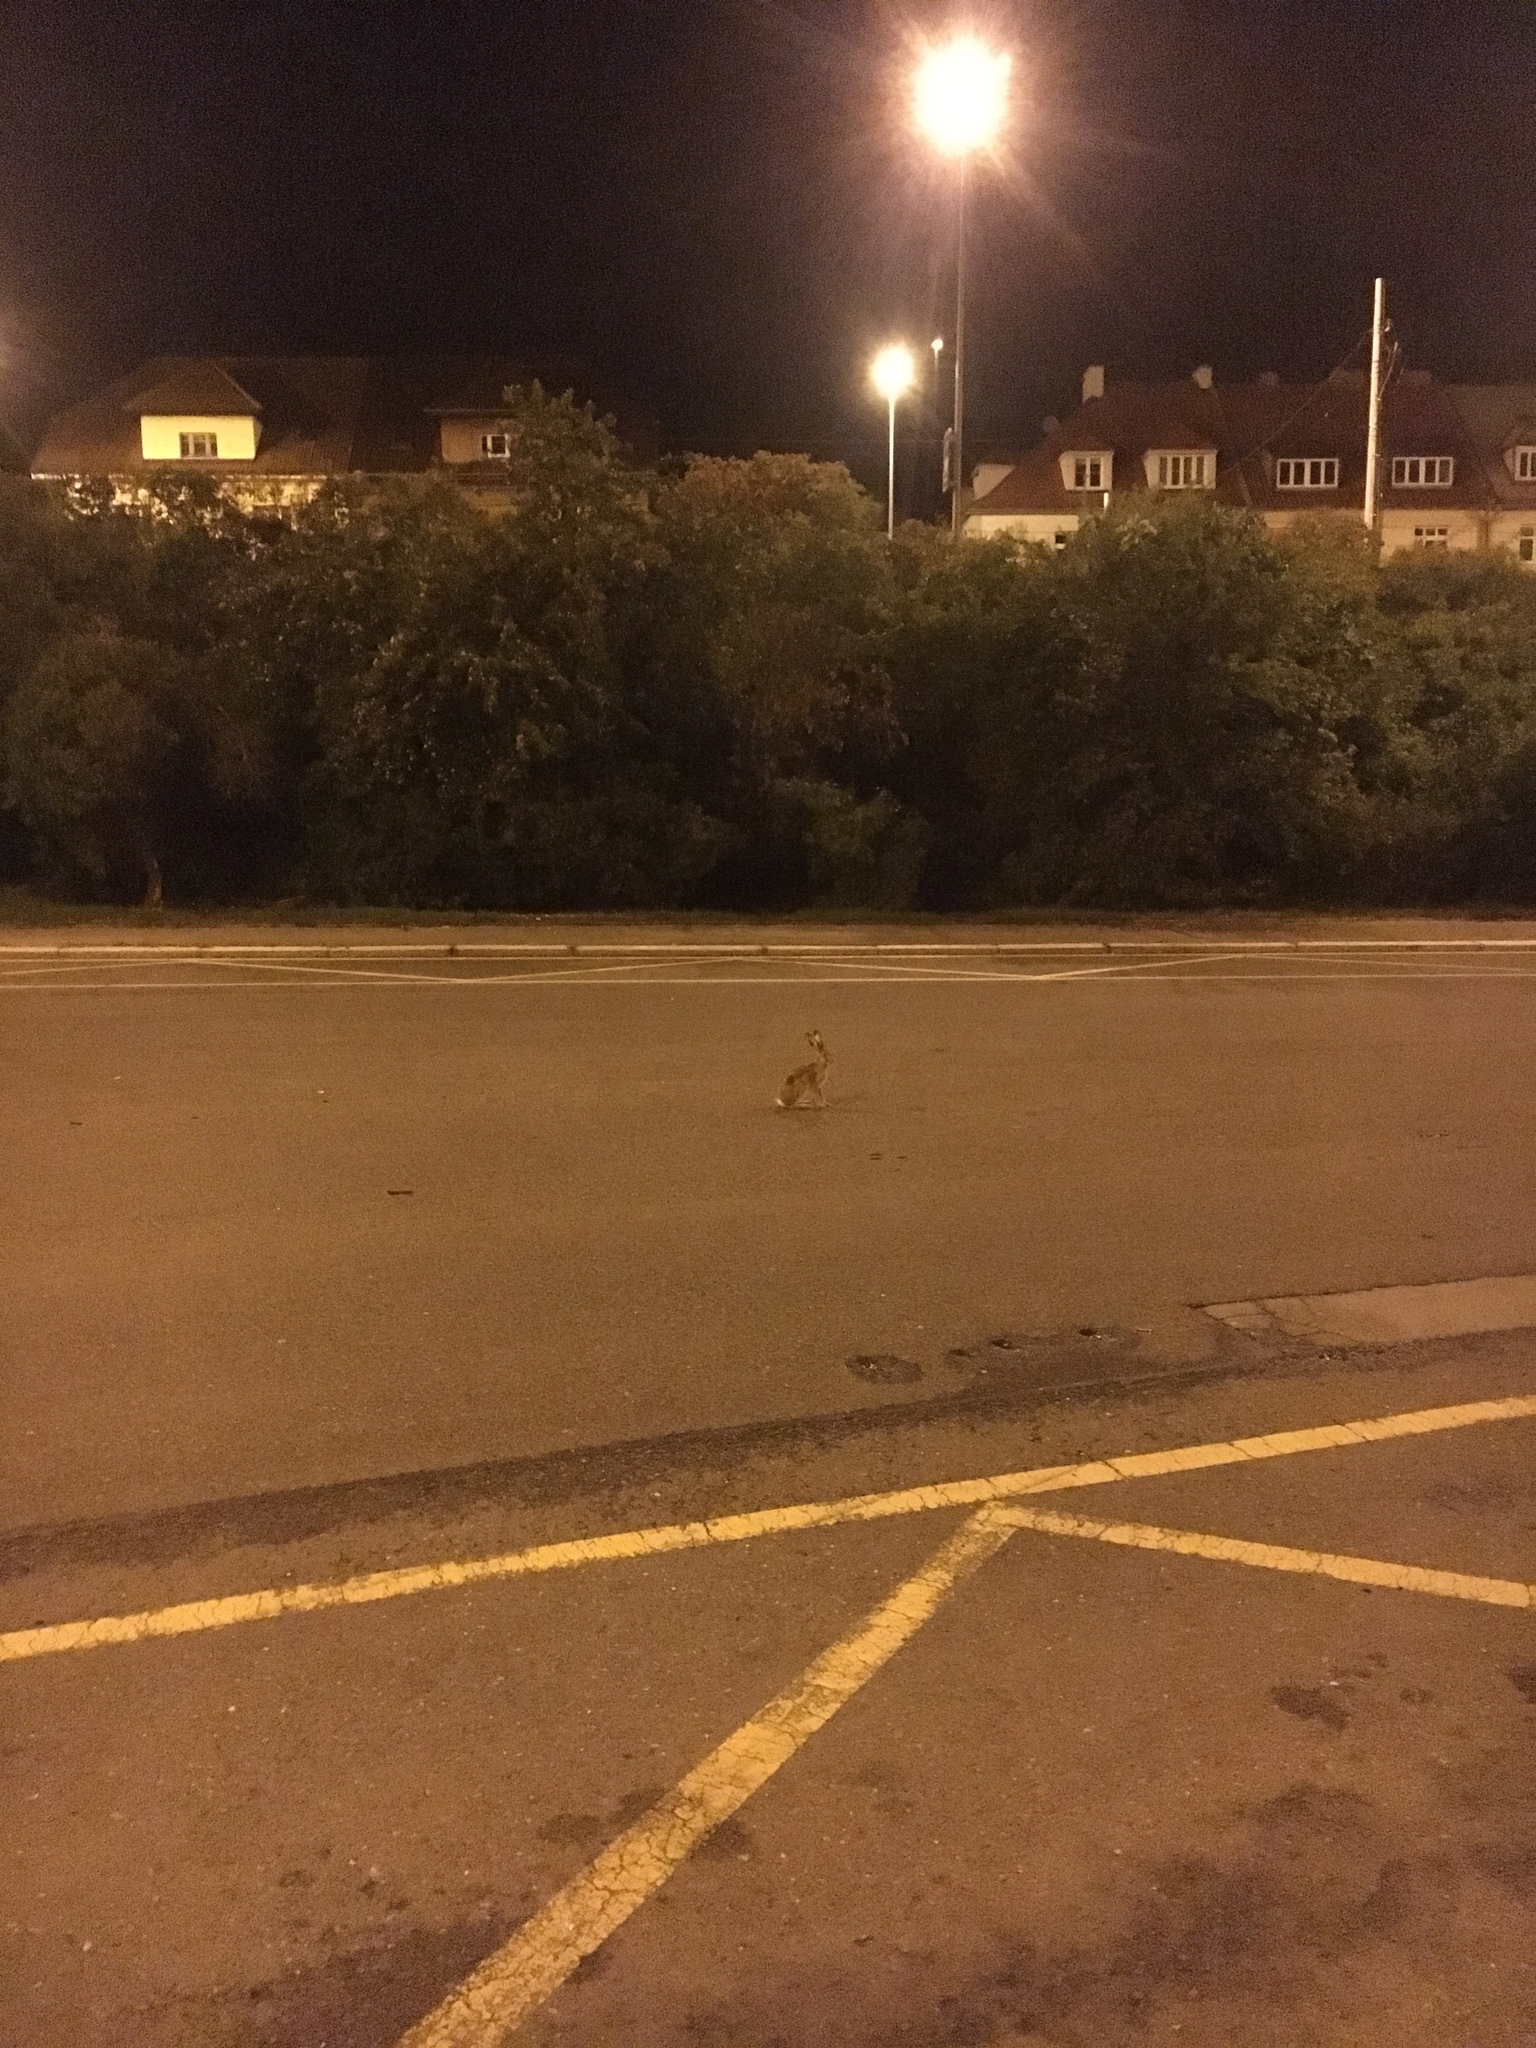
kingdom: Animalia
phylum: Chordata
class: Mammalia
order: Lagomorpha
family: Leporidae
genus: Lepus
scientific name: Lepus europaeus
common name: European hare
